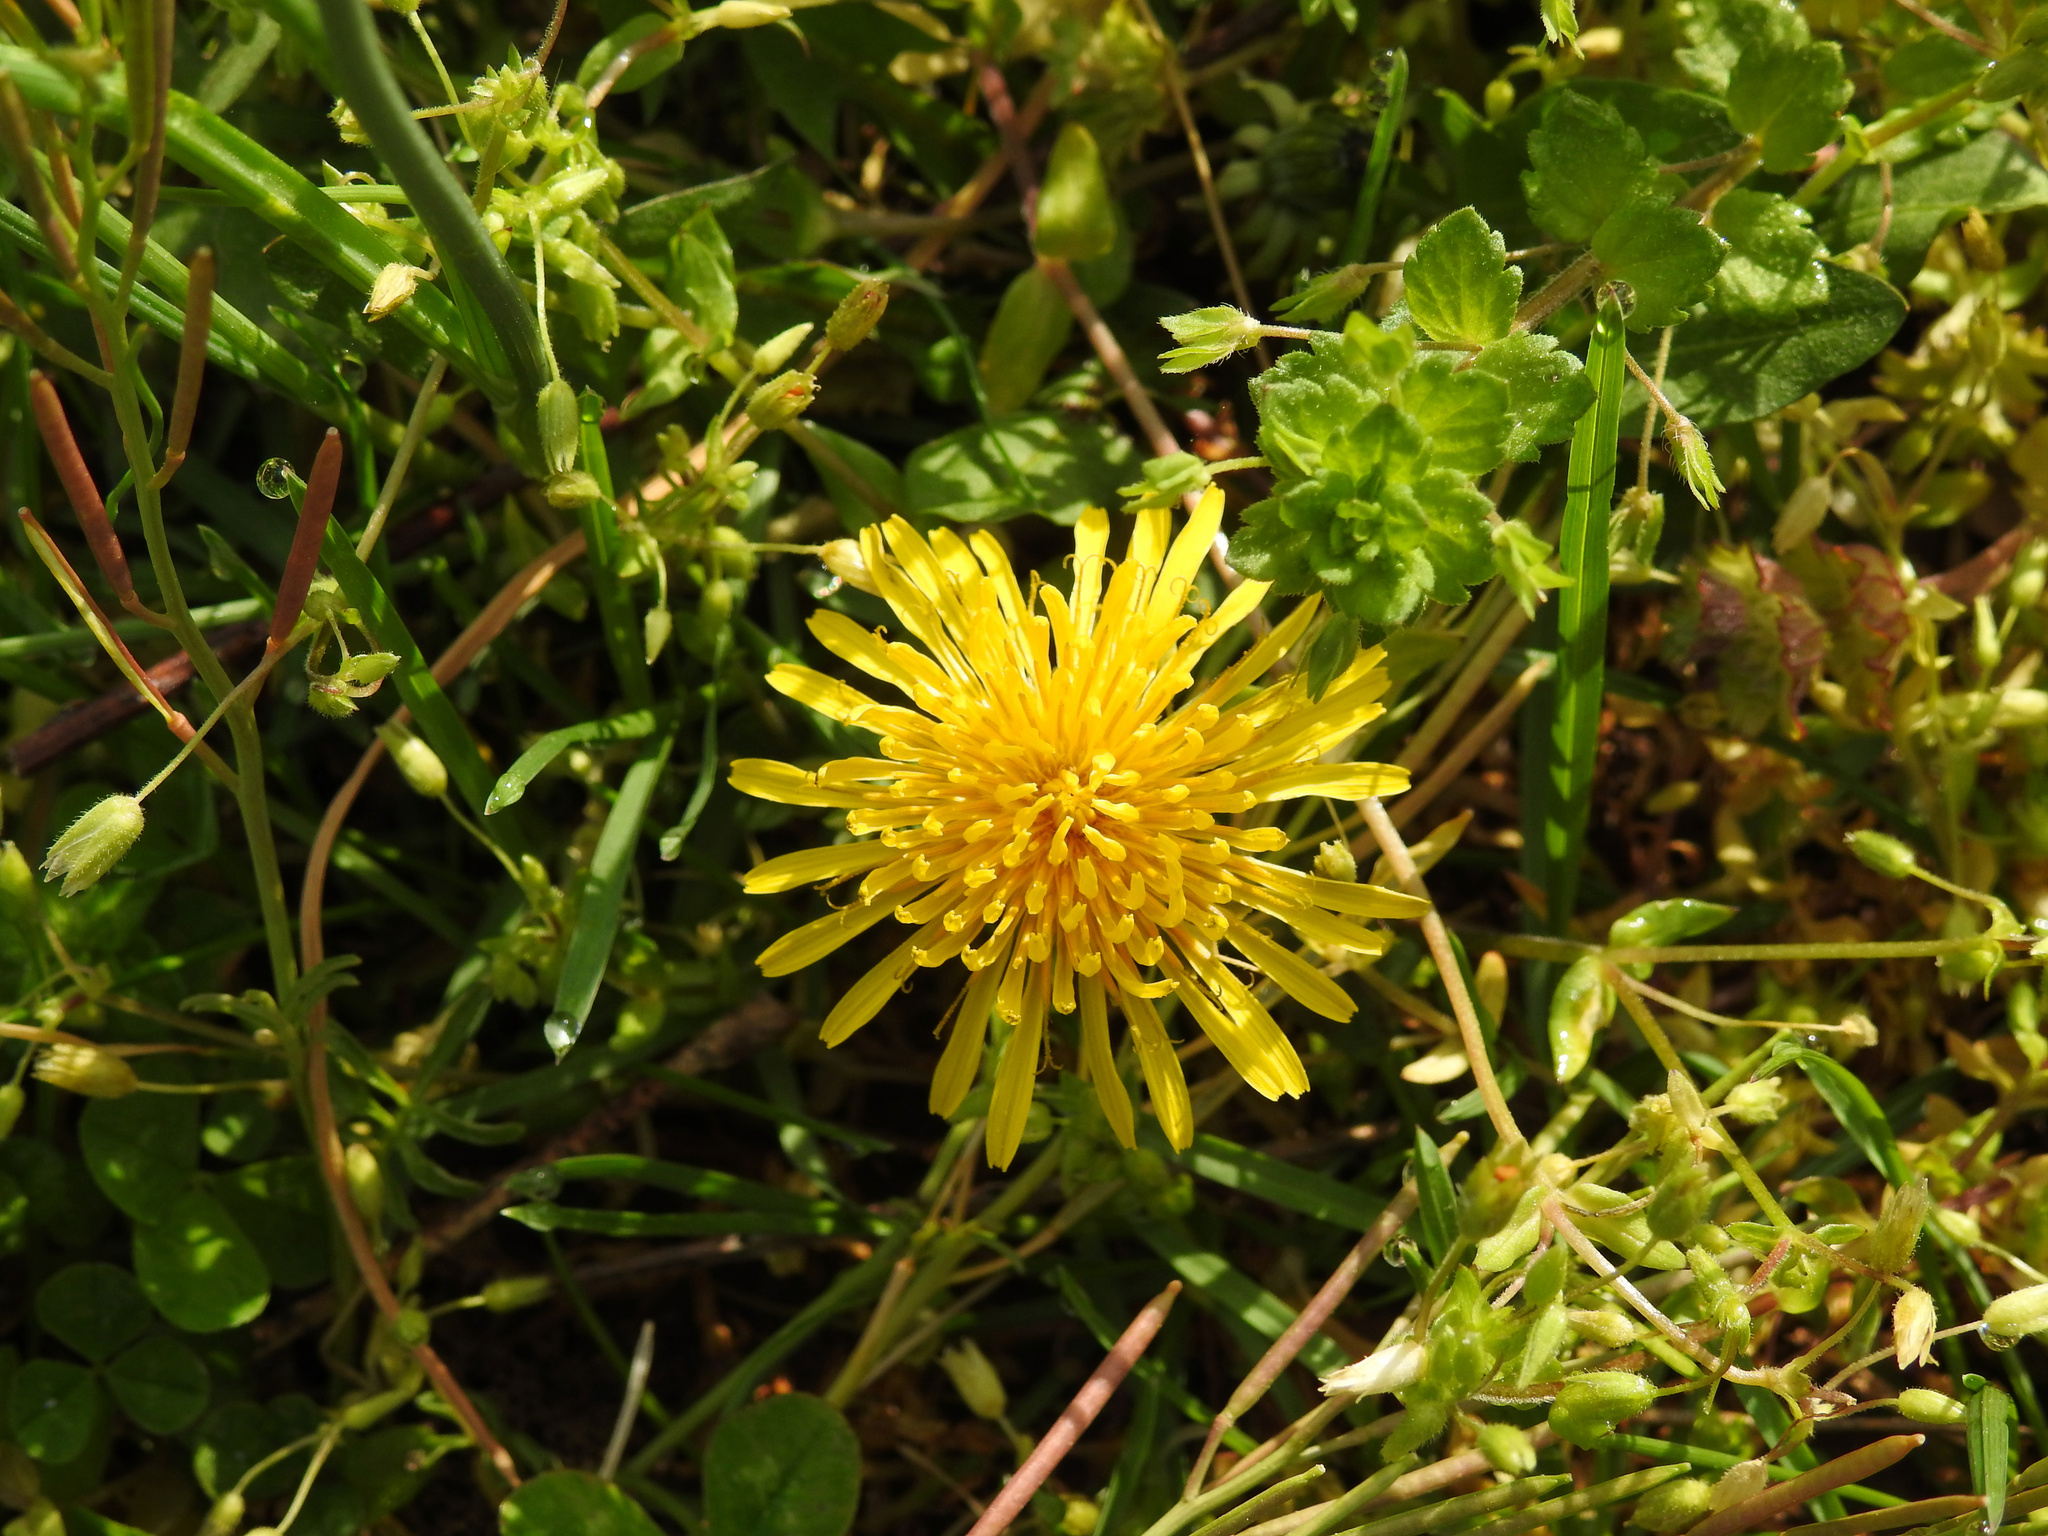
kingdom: Plantae
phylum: Tracheophyta
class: Magnoliopsida
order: Asterales
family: Asteraceae
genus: Taraxacum
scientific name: Taraxacum officinale
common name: Common dandelion
